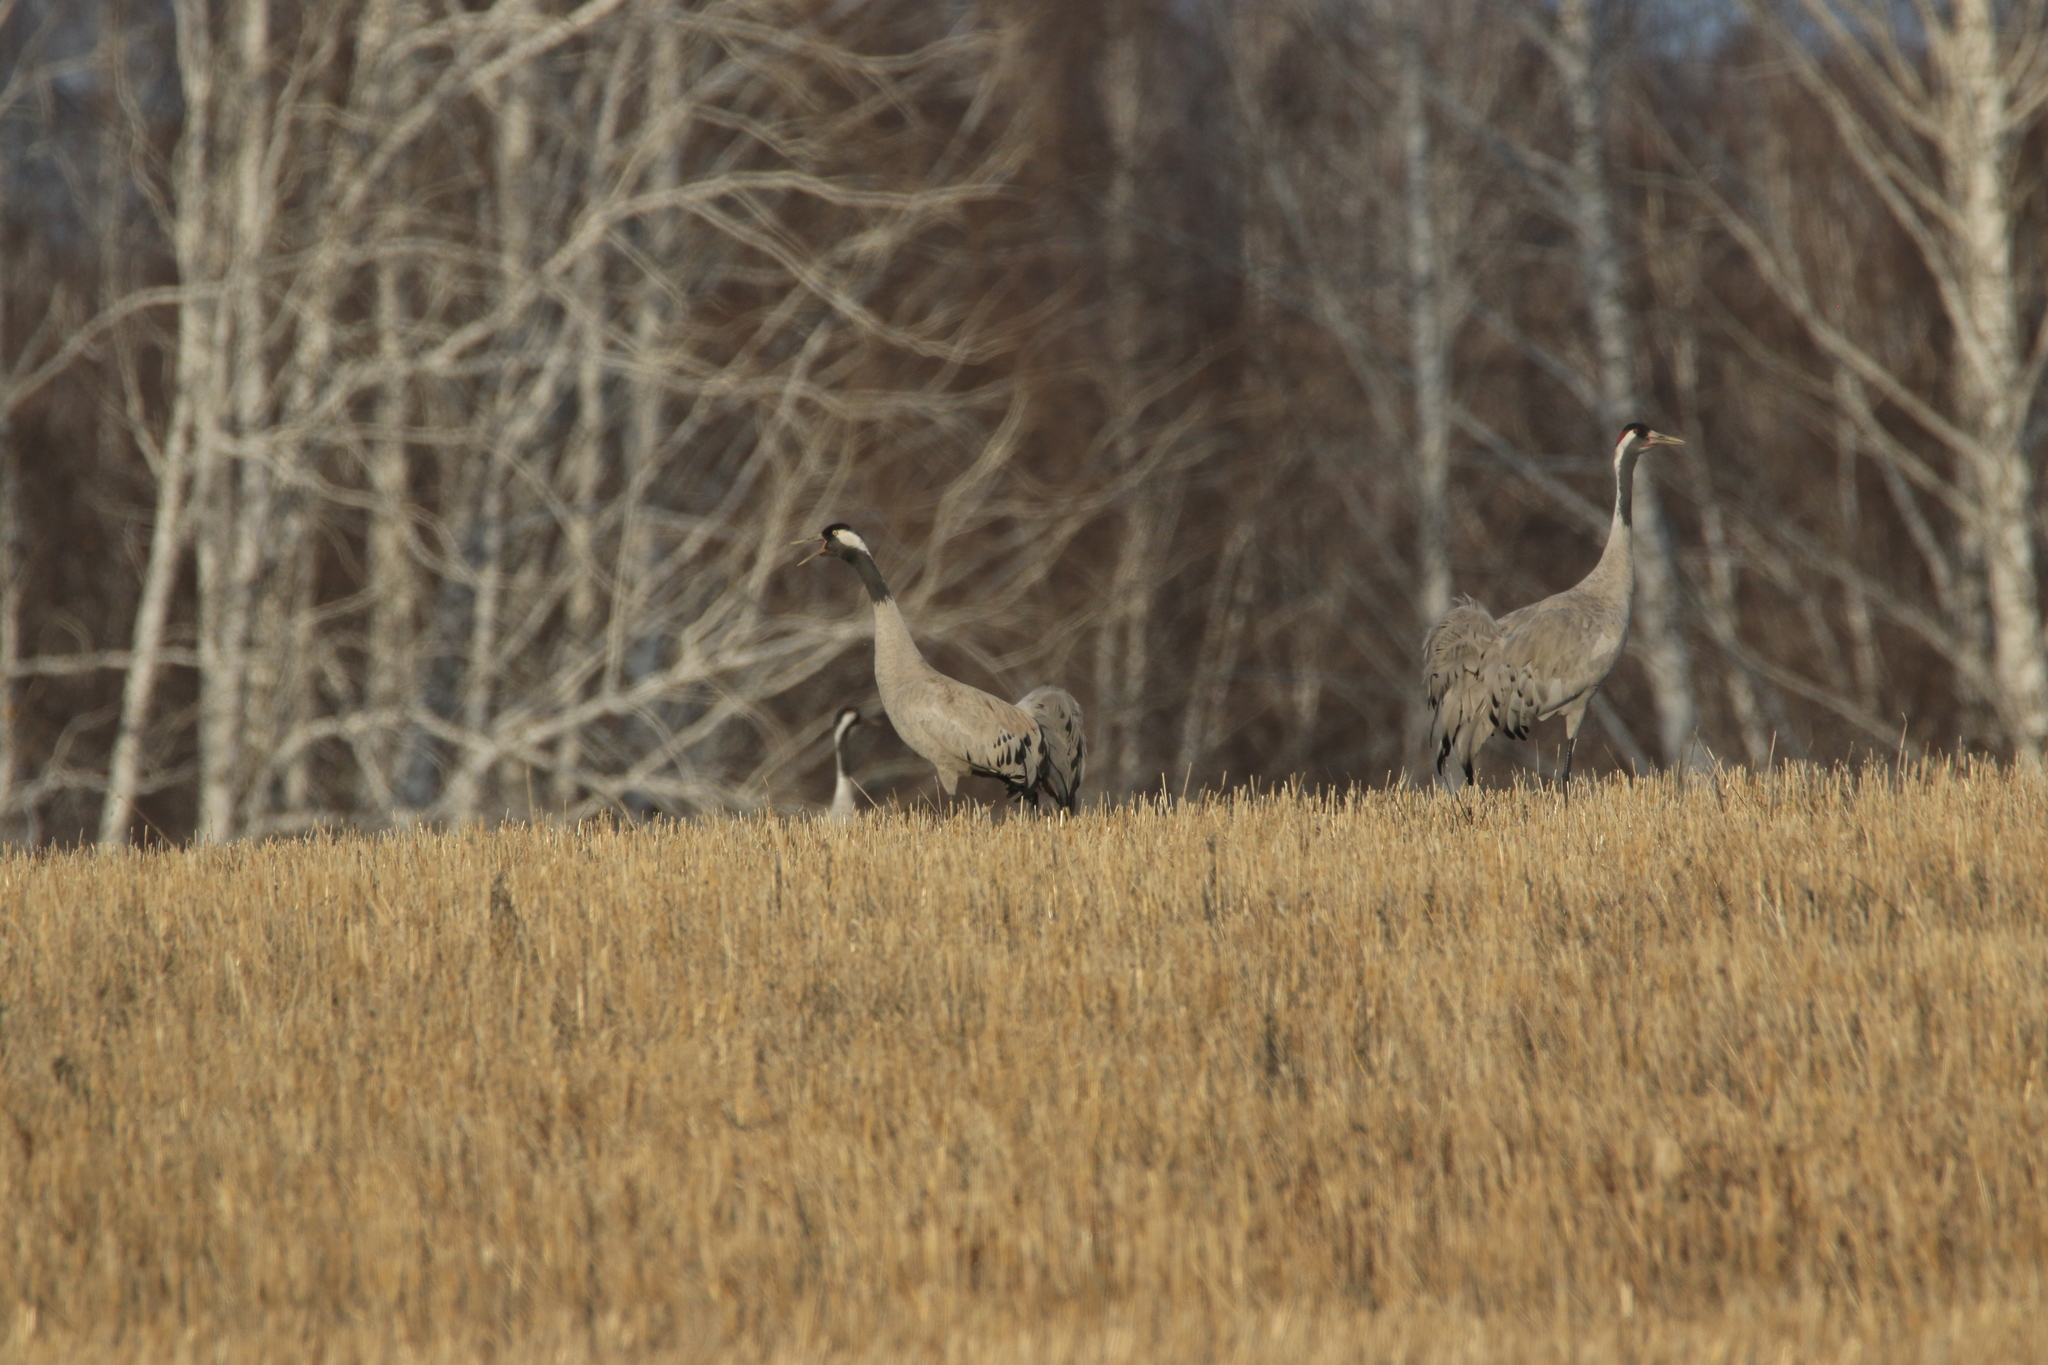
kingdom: Animalia
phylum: Chordata
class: Aves
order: Gruiformes
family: Gruidae
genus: Grus
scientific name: Grus grus
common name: Common crane
